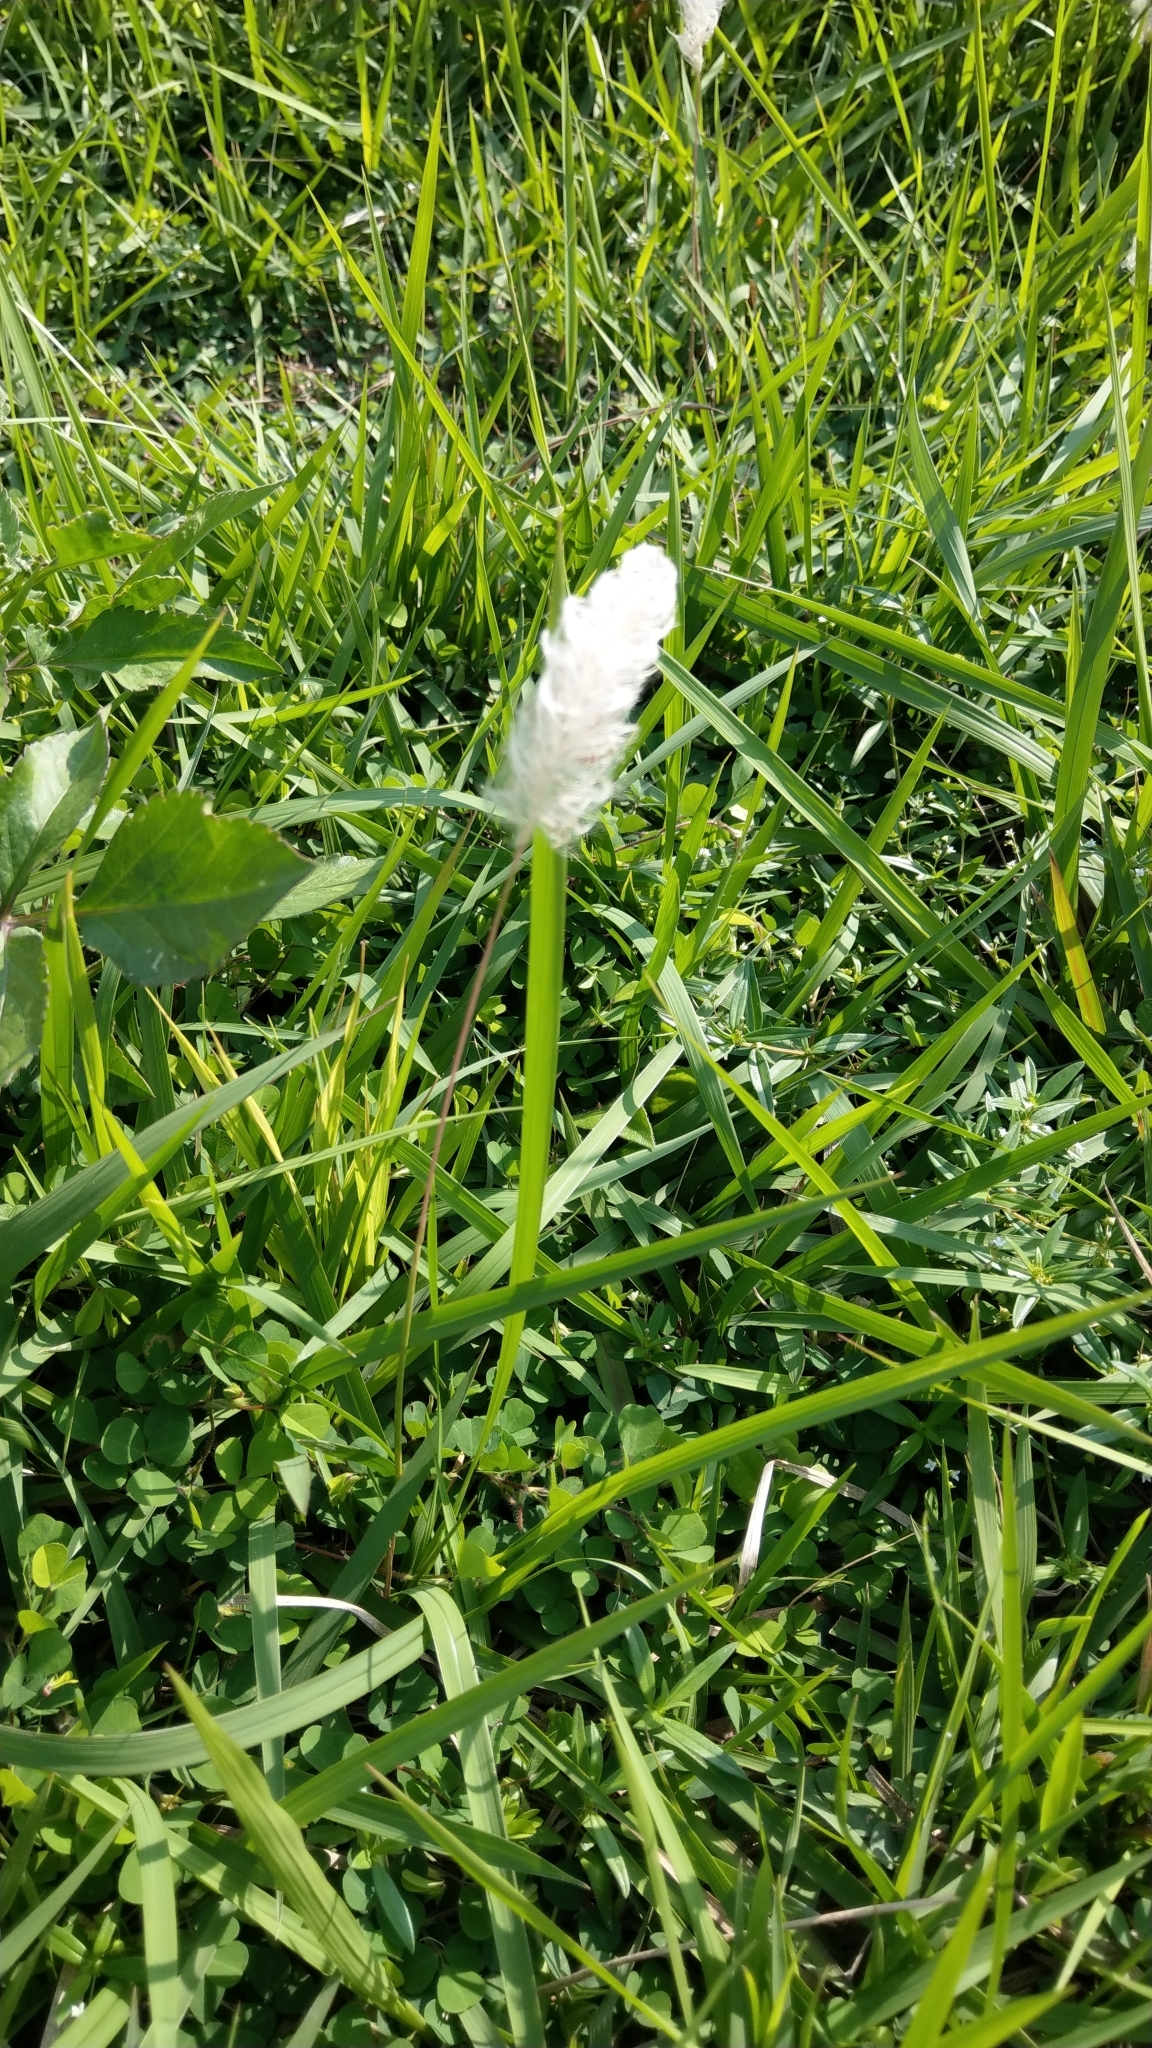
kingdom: Plantae
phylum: Tracheophyta
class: Liliopsida
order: Poales
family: Poaceae
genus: Imperata
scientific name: Imperata cylindrica
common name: Cogongrass
